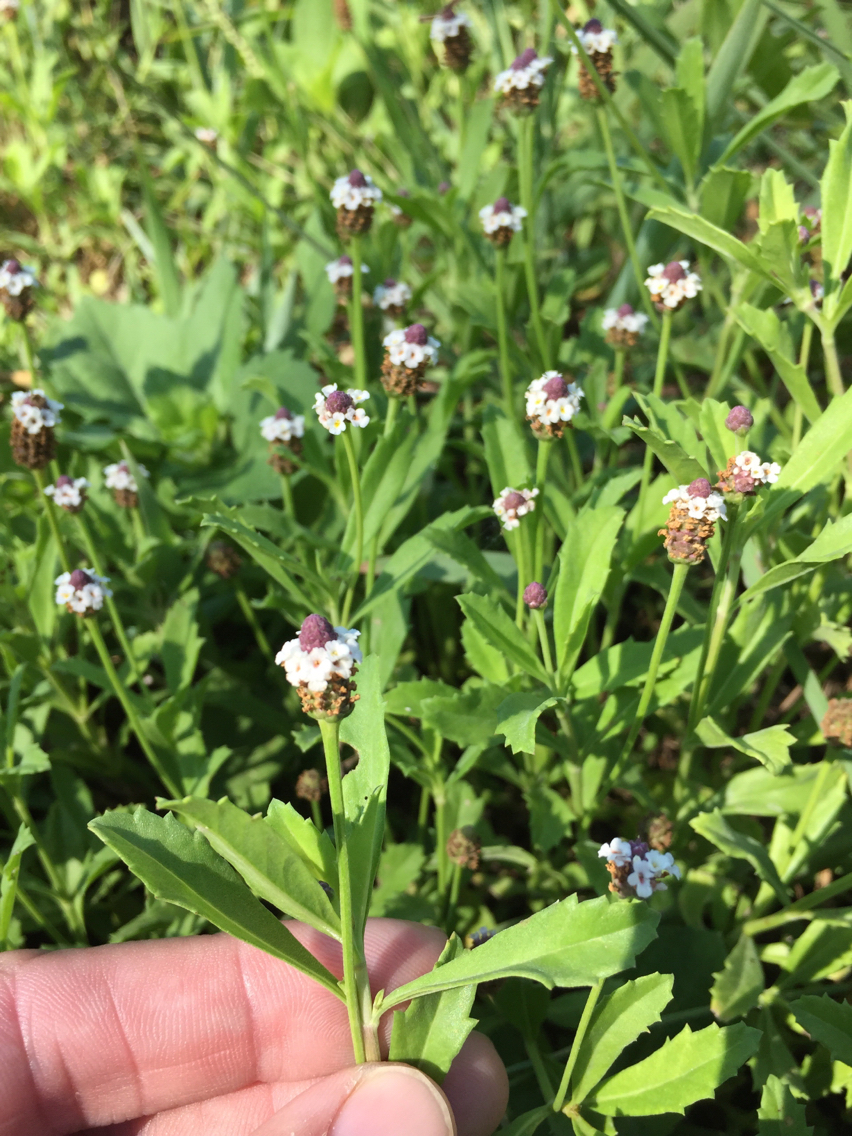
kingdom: Plantae
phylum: Tracheophyta
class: Magnoliopsida
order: Lamiales
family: Verbenaceae
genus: Phyla
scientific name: Phyla nodiflora
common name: Frogfruit
